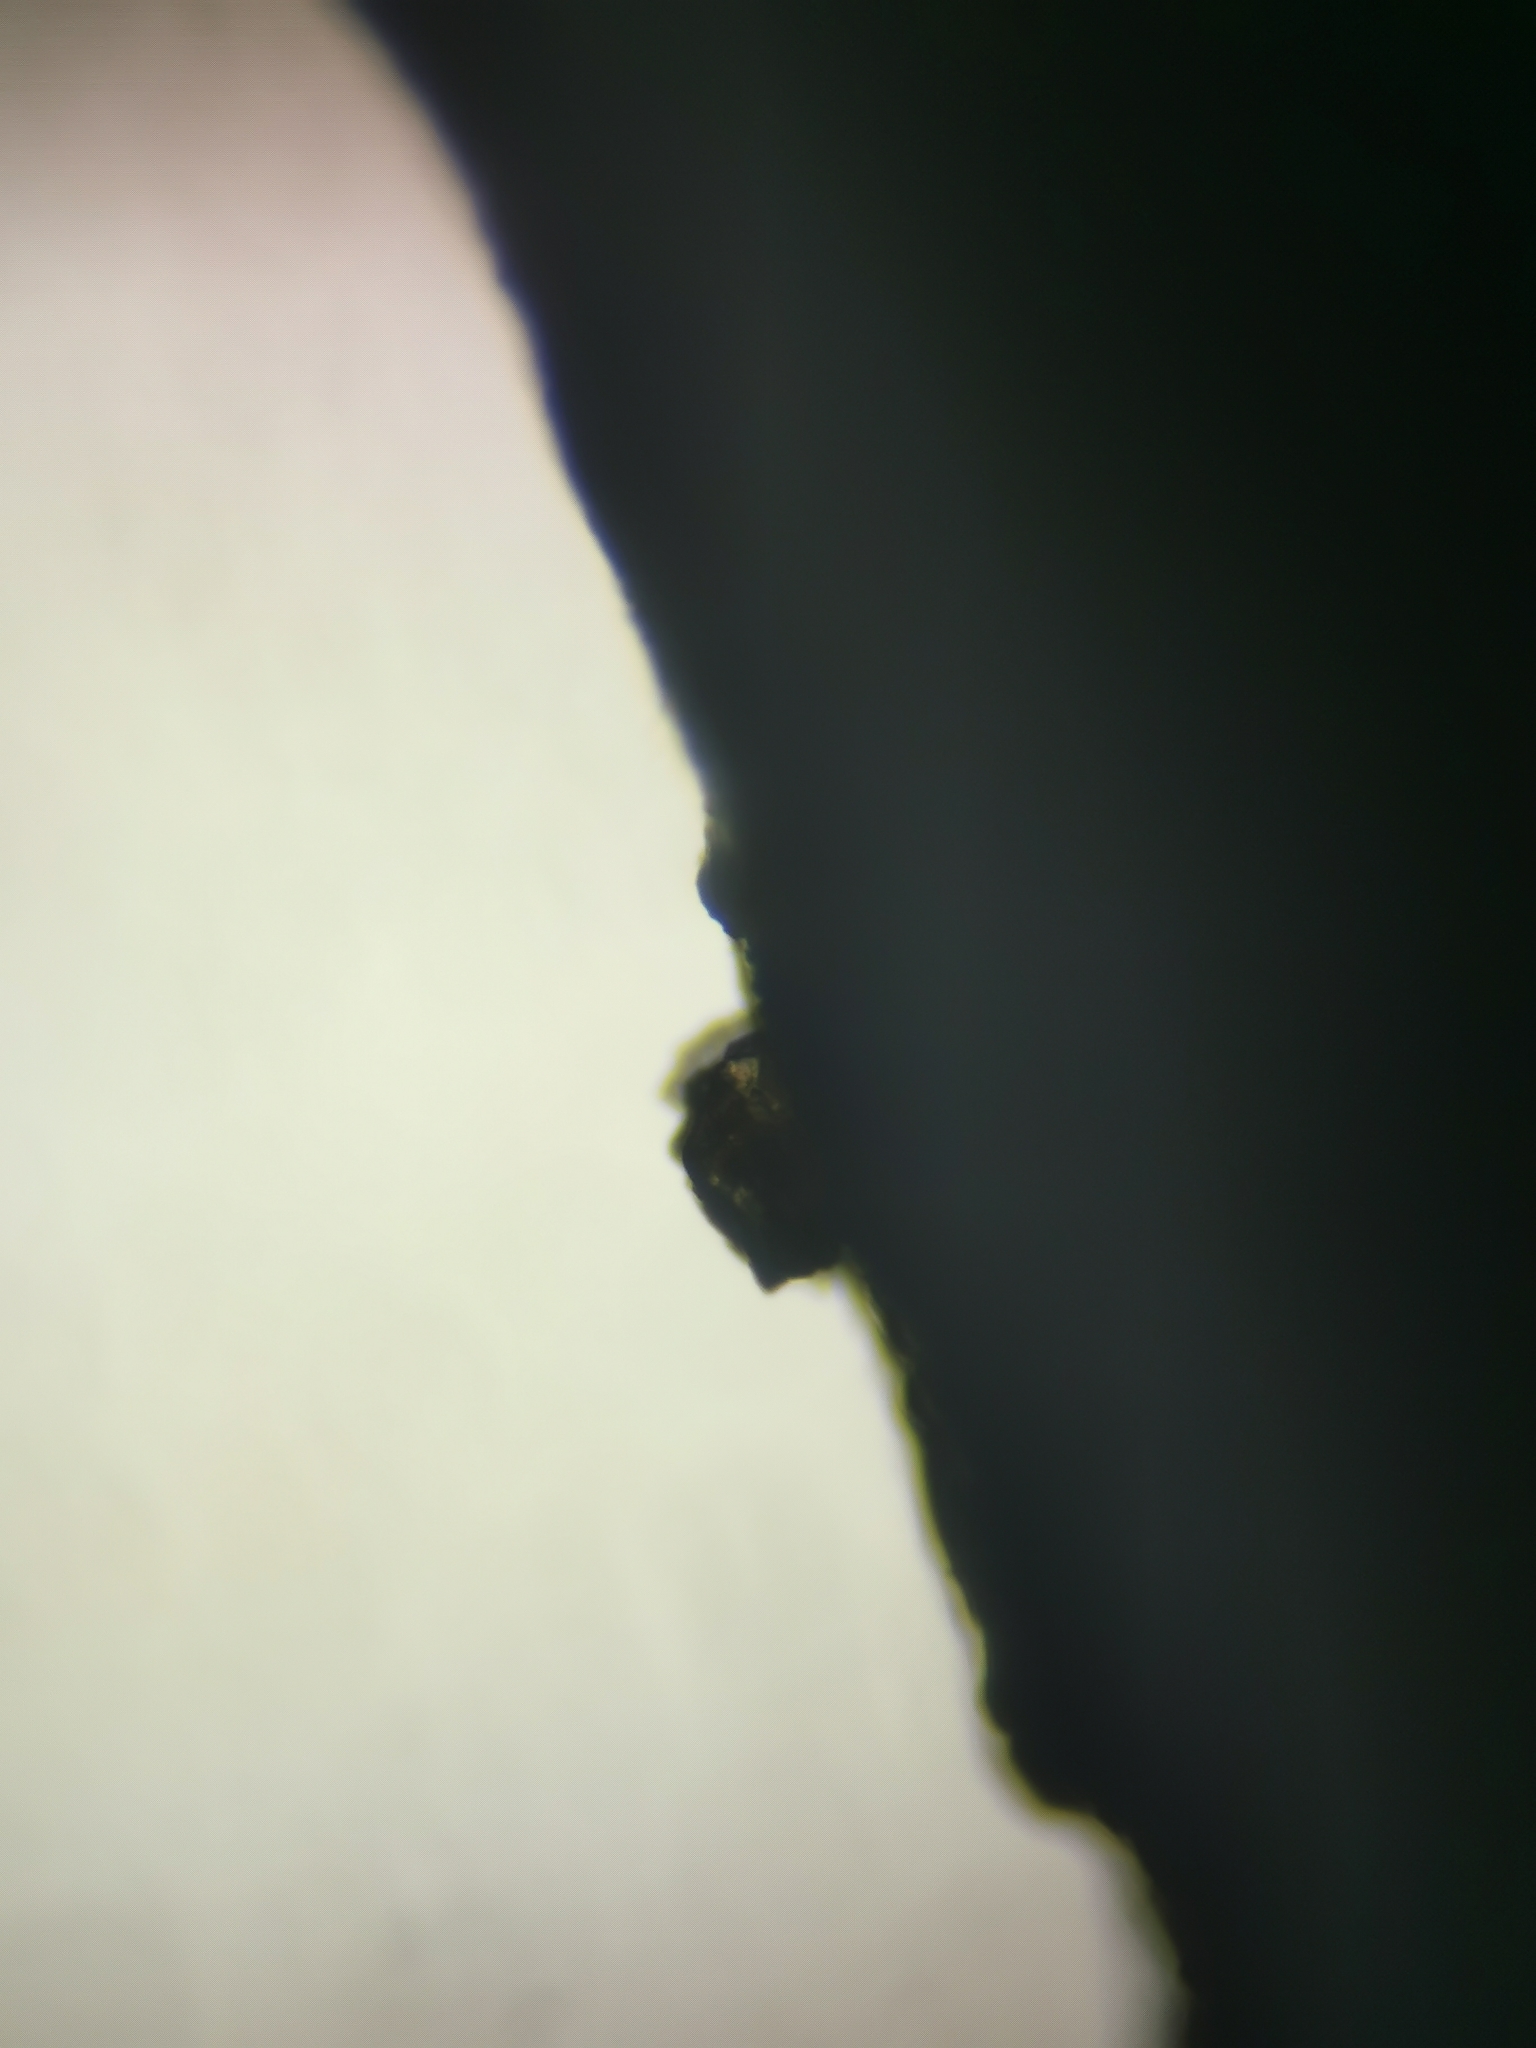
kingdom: Chromista
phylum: Ochrophyta
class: Phaeophyceae
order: Fucales
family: Sargassaceae
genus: Cystophora
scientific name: Cystophora torulosa
